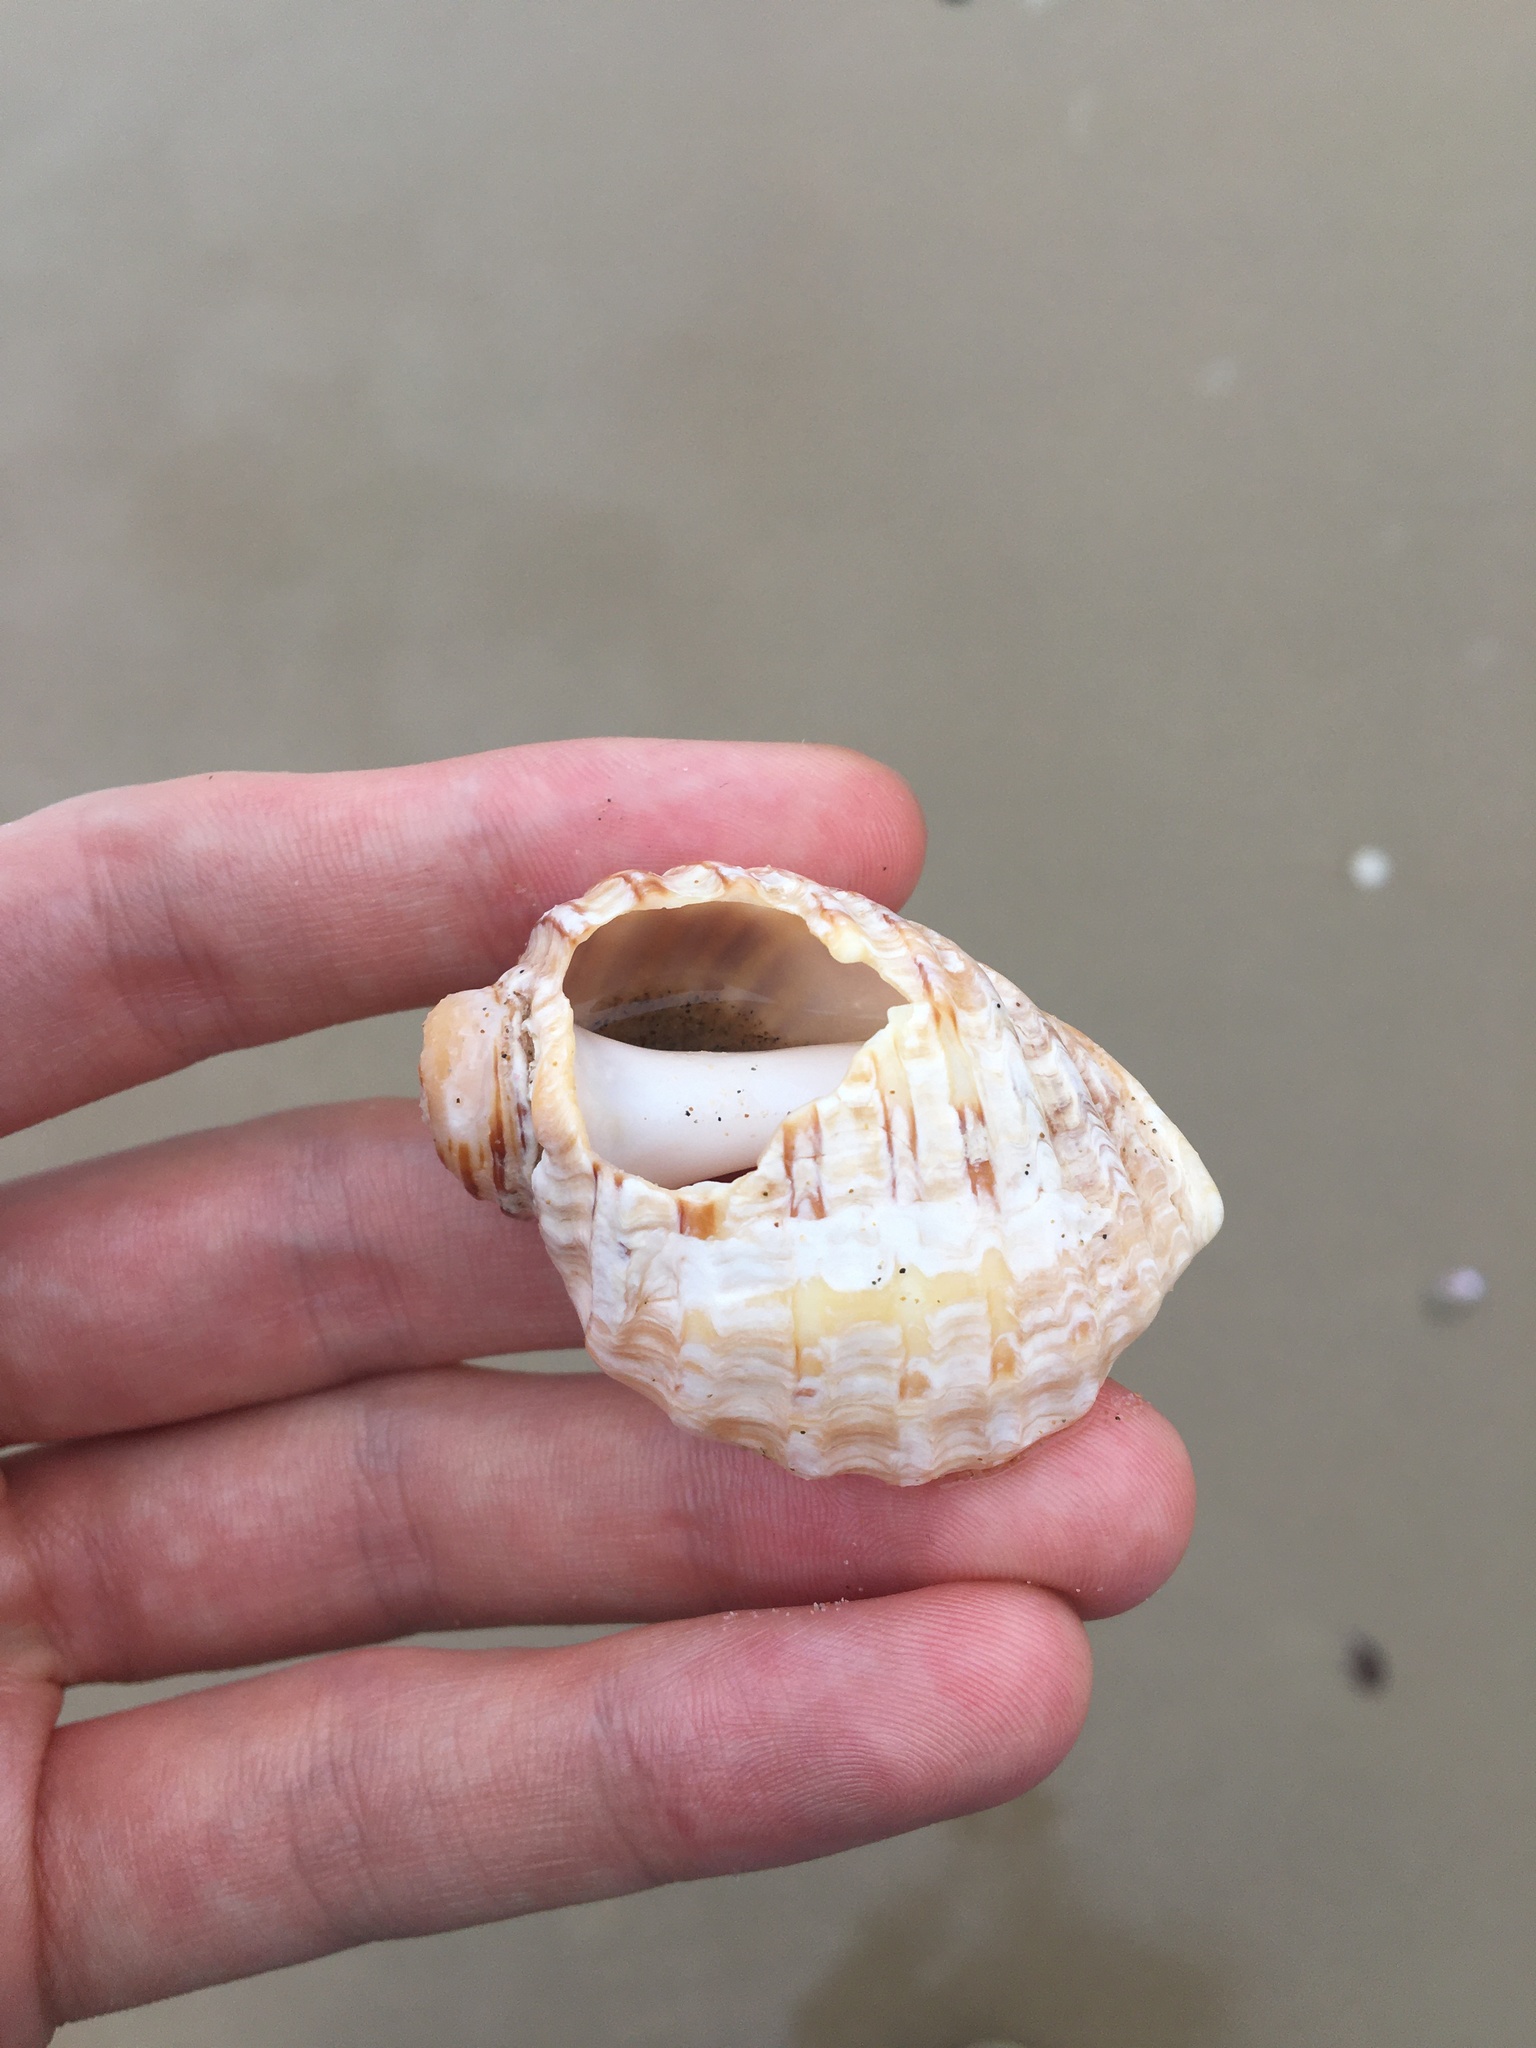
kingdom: Animalia
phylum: Mollusca
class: Gastropoda
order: Neogastropoda
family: Muricidae
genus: Dicathais
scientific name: Dicathais orbita
